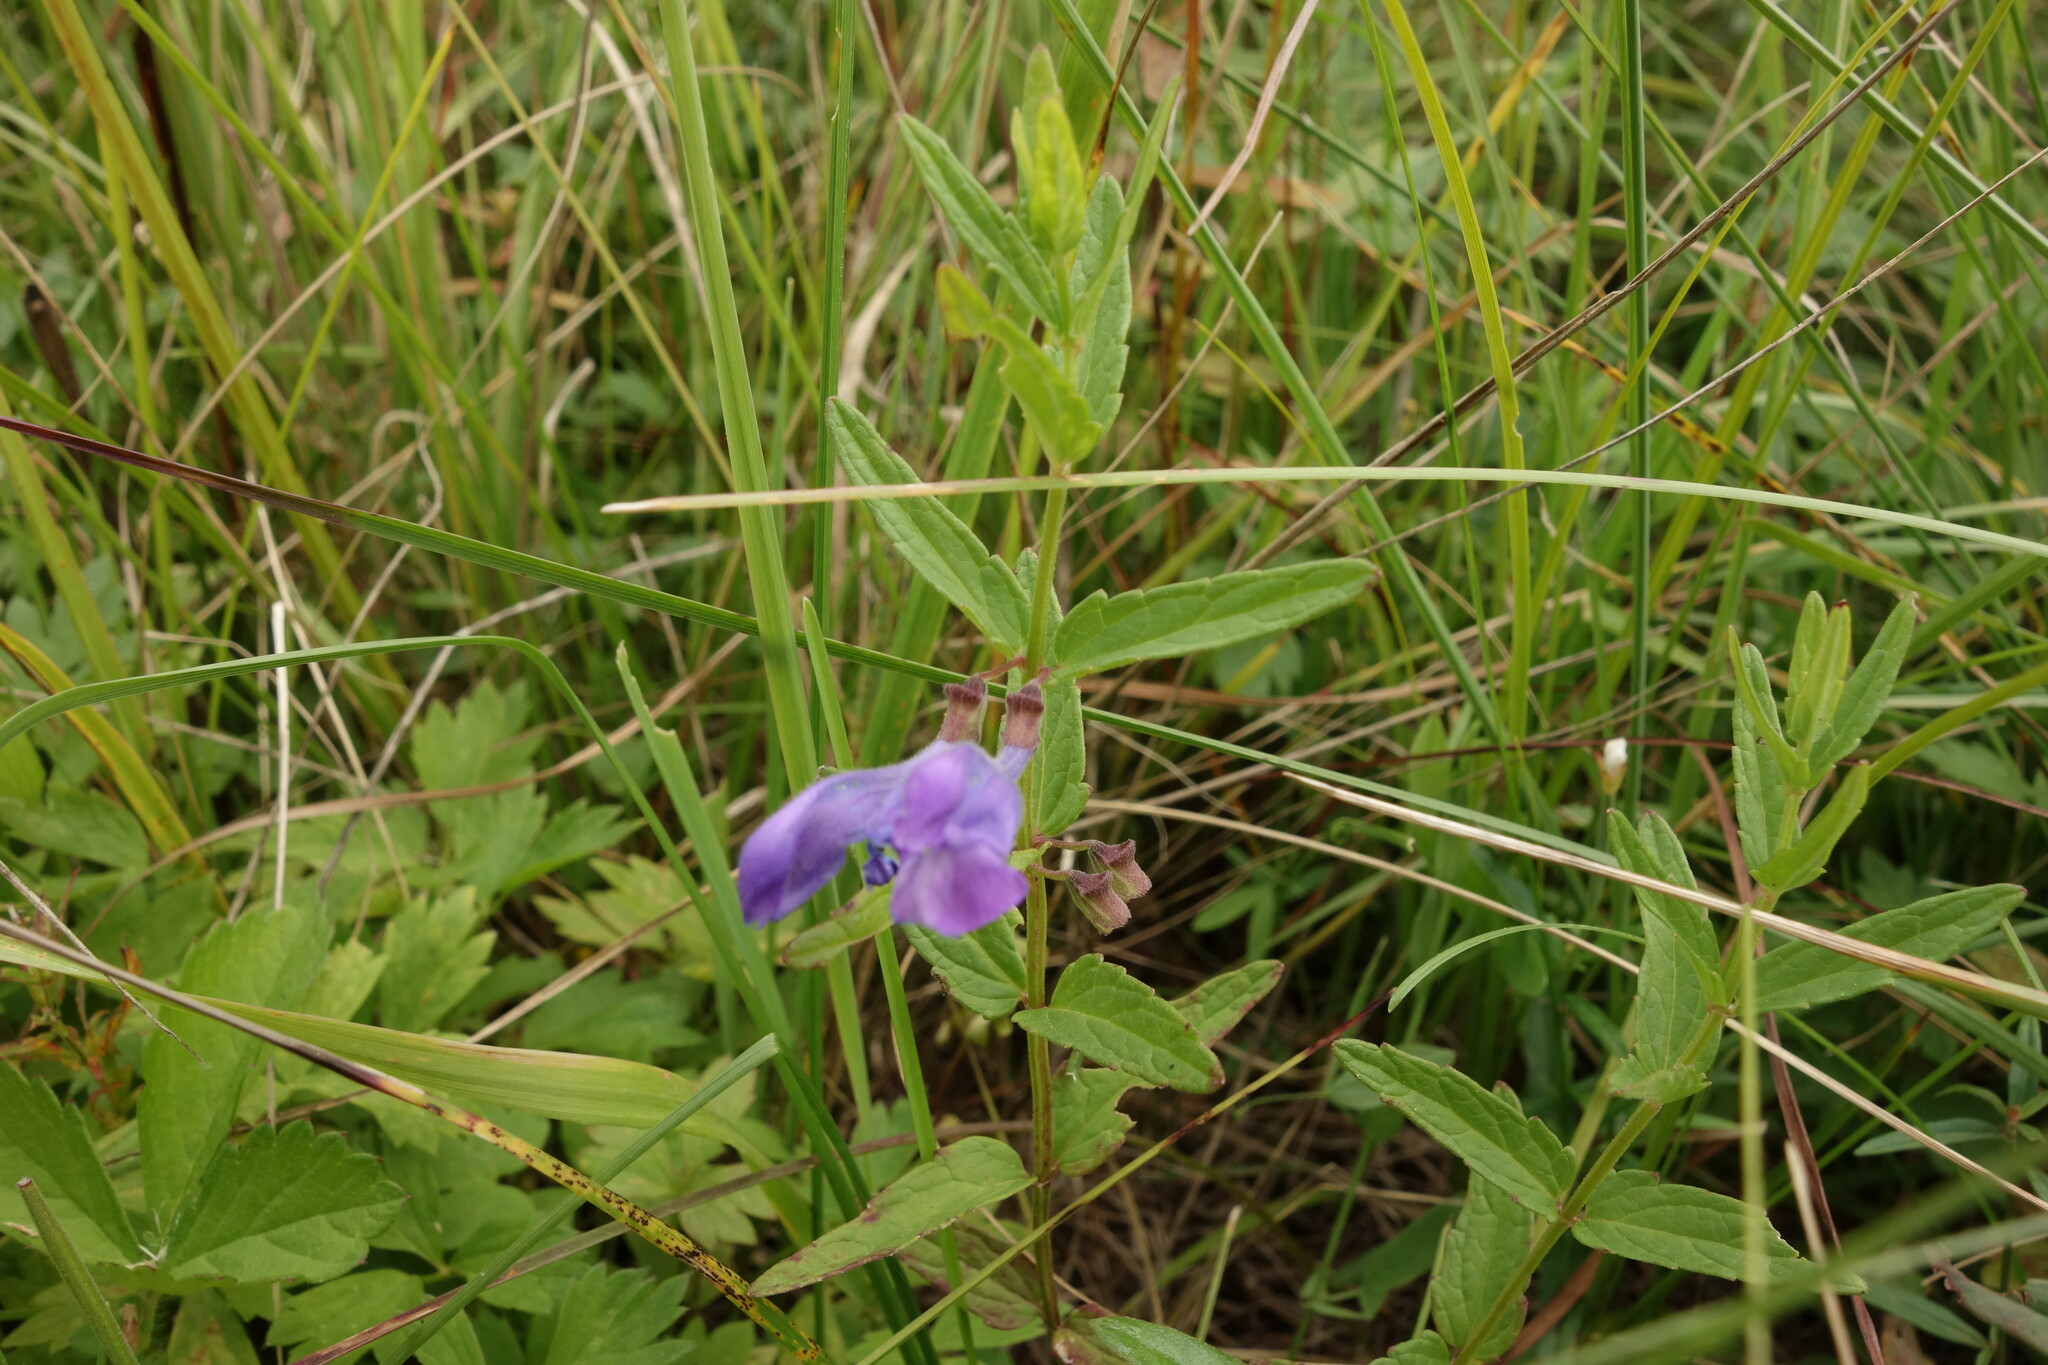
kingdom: Plantae
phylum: Tracheophyta
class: Magnoliopsida
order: Lamiales
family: Lamiaceae
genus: Scutellaria
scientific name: Scutellaria scordiifolia
